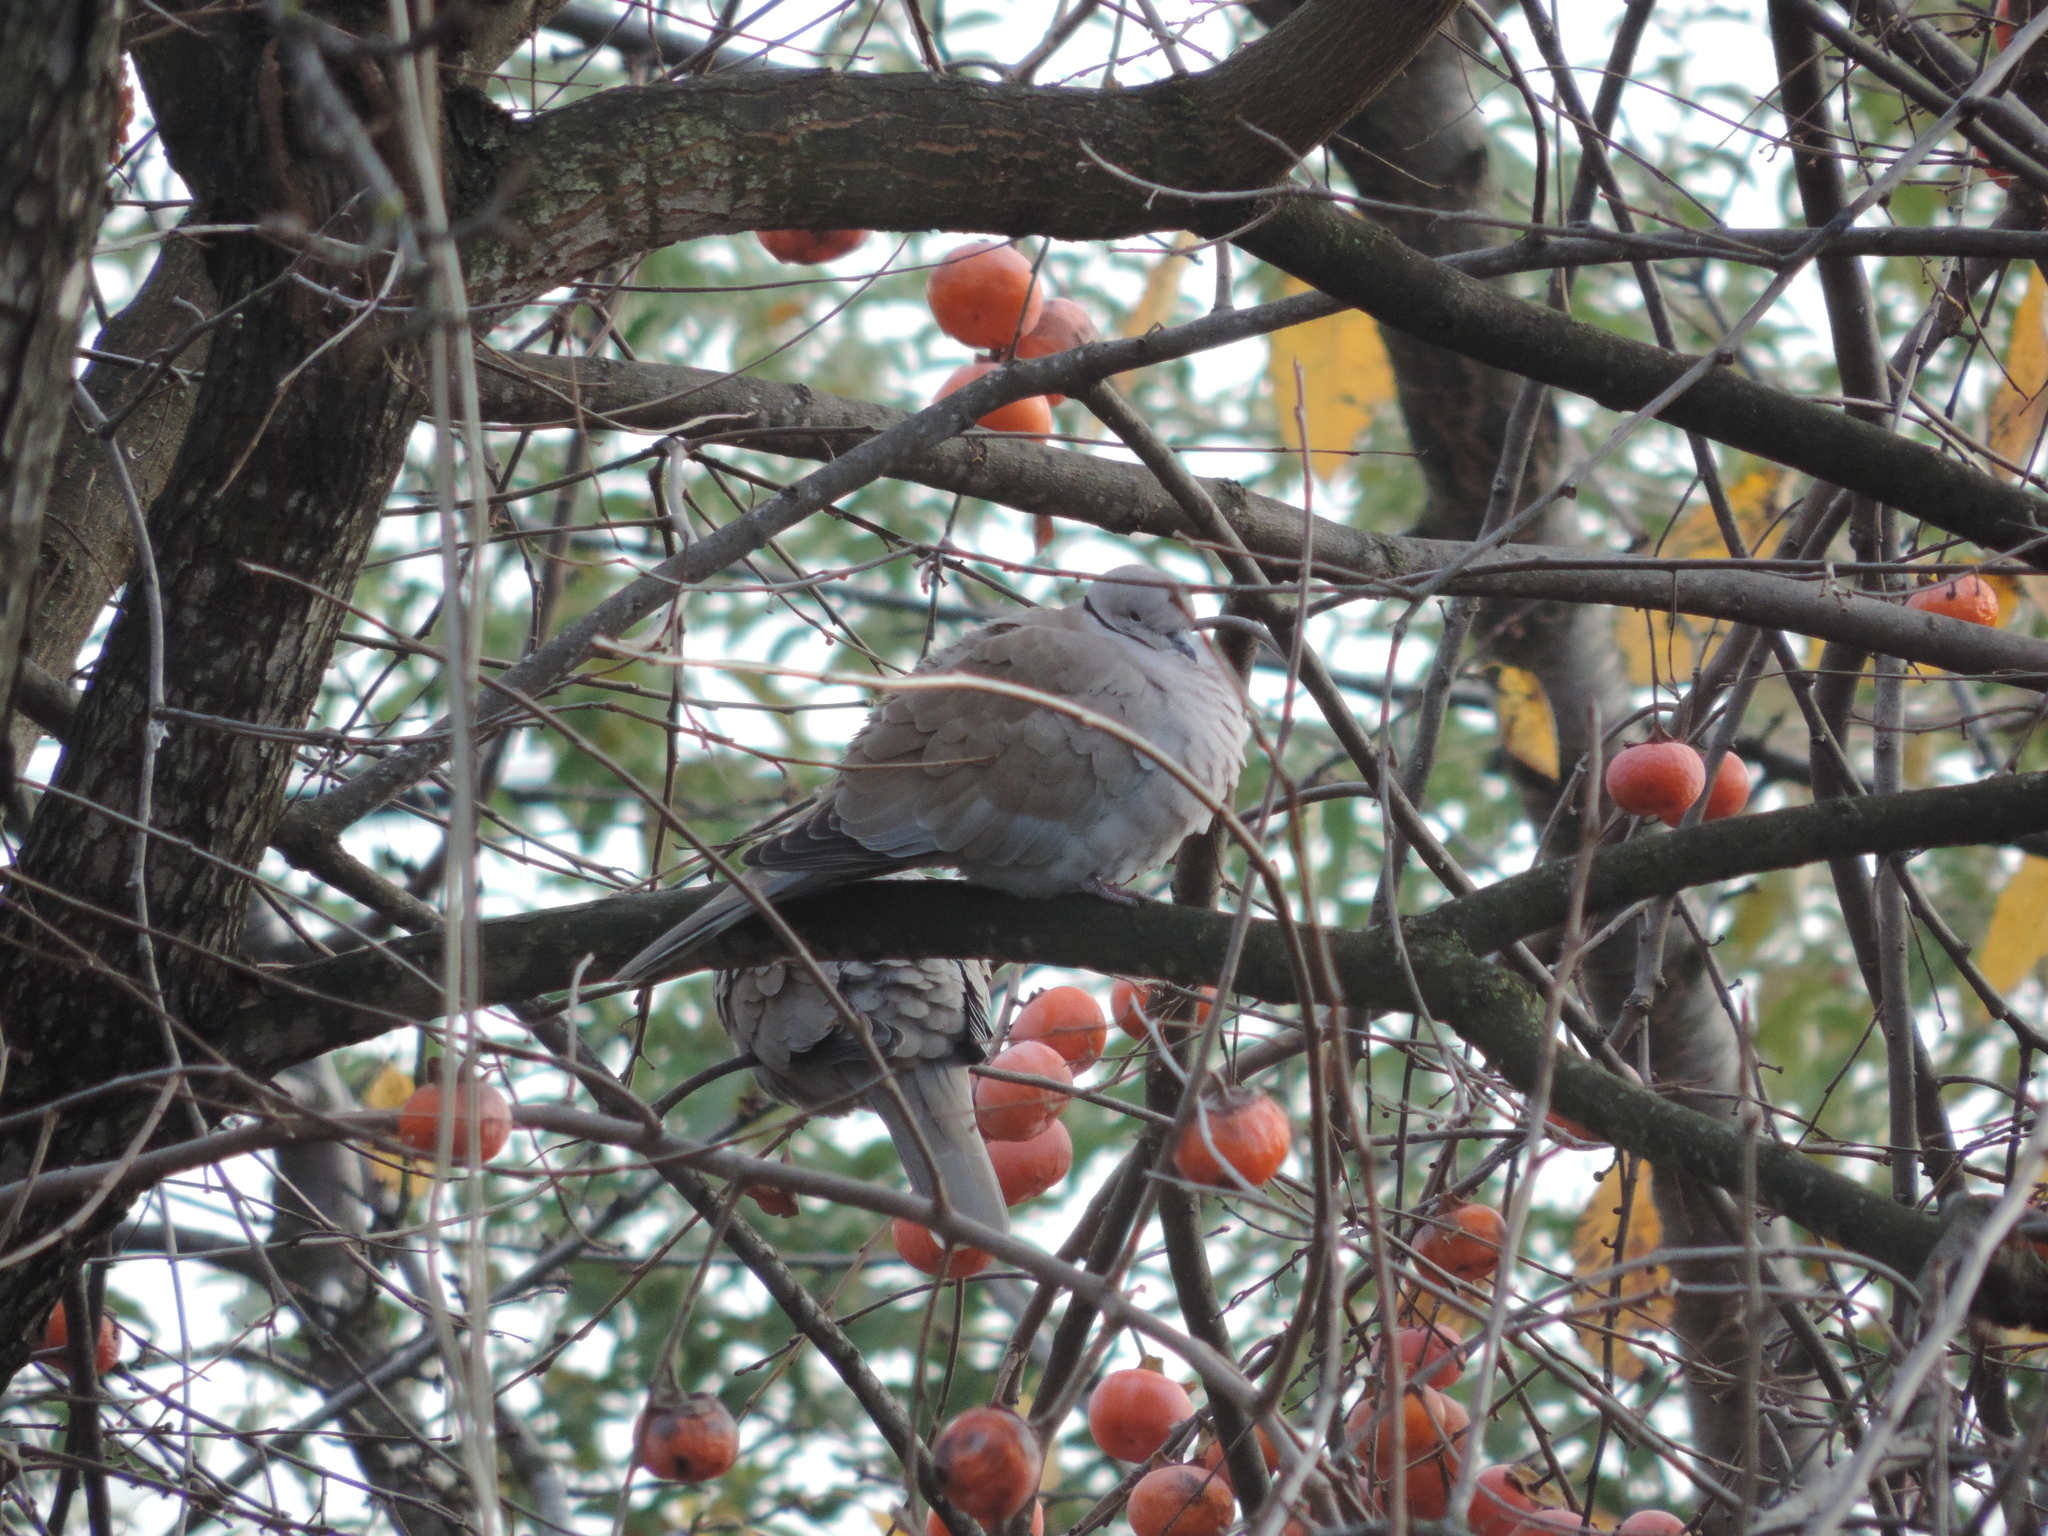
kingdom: Animalia
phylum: Chordata
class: Aves
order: Columbiformes
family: Columbidae
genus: Streptopelia
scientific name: Streptopelia decaocto
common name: Eurasian collared dove
